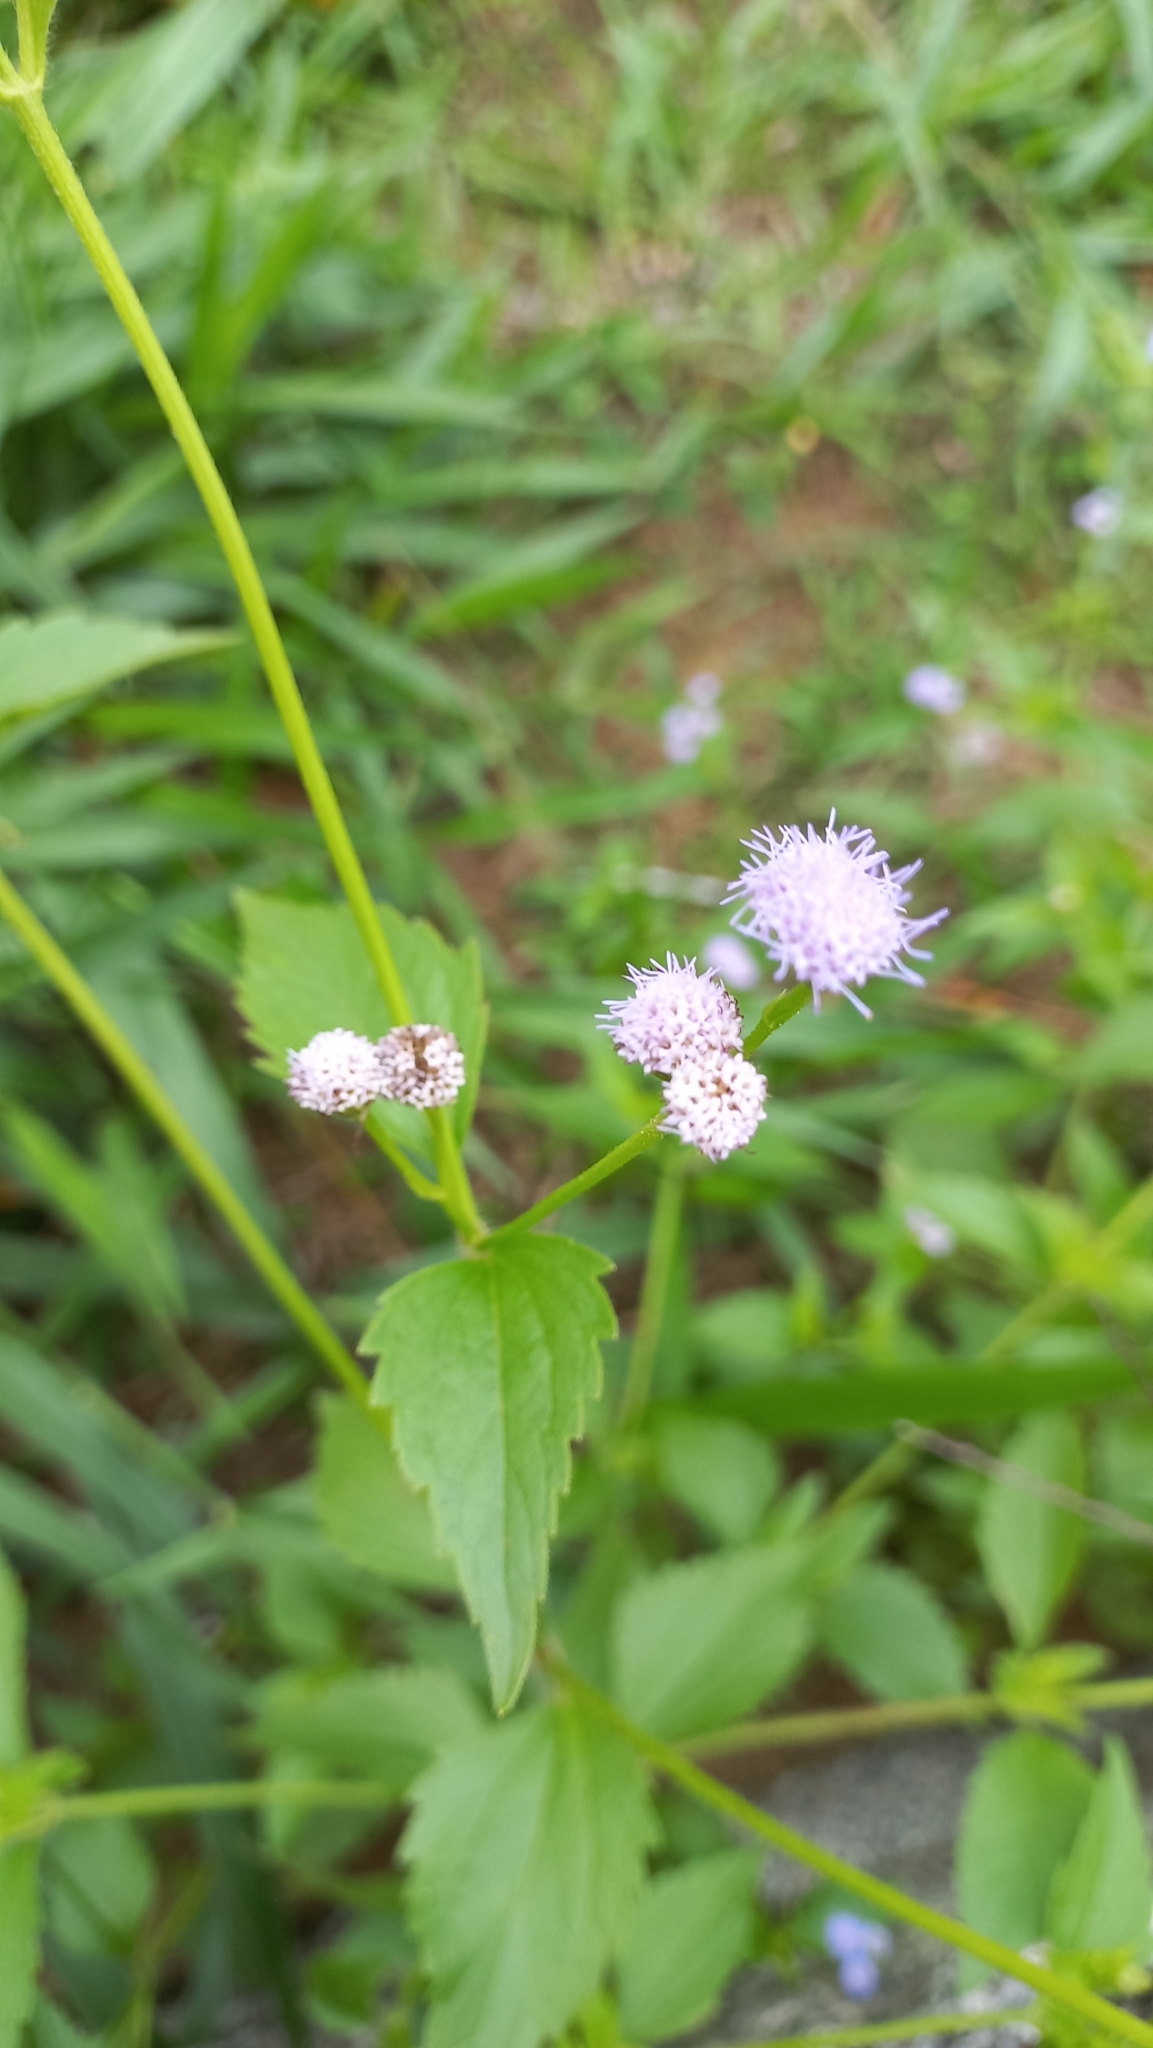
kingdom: Plantae
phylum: Tracheophyta
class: Magnoliopsida
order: Asterales
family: Asteraceae
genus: Praxelis
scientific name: Praxelis clematidea
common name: Praxelis
